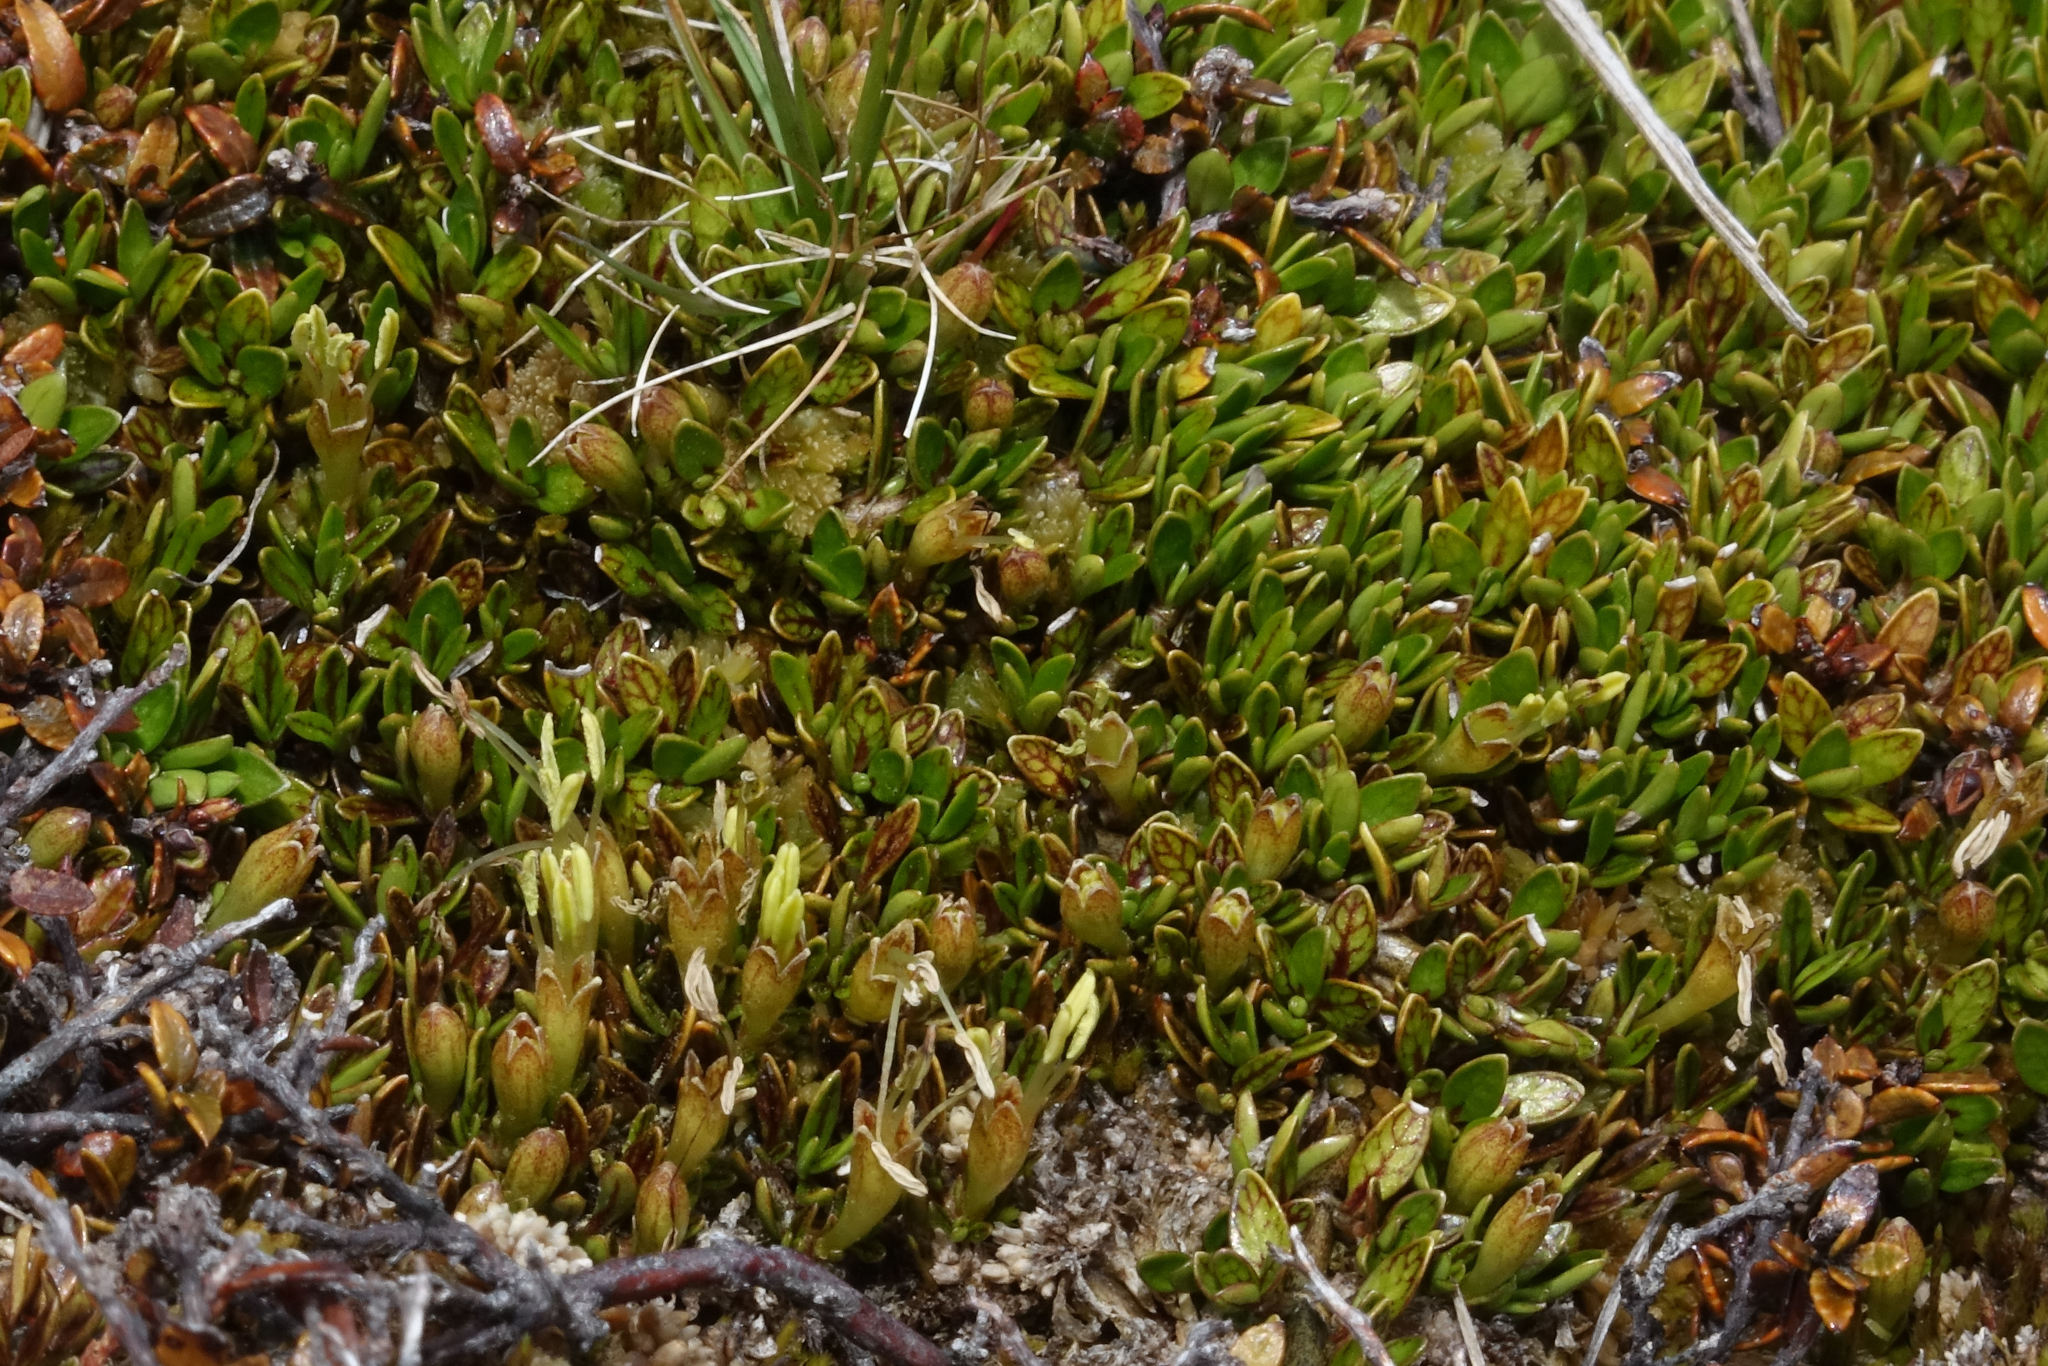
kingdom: Plantae
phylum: Tracheophyta
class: Magnoliopsida
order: Gentianales
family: Rubiaceae
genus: Coprosma
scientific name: Coprosma perpusilla
